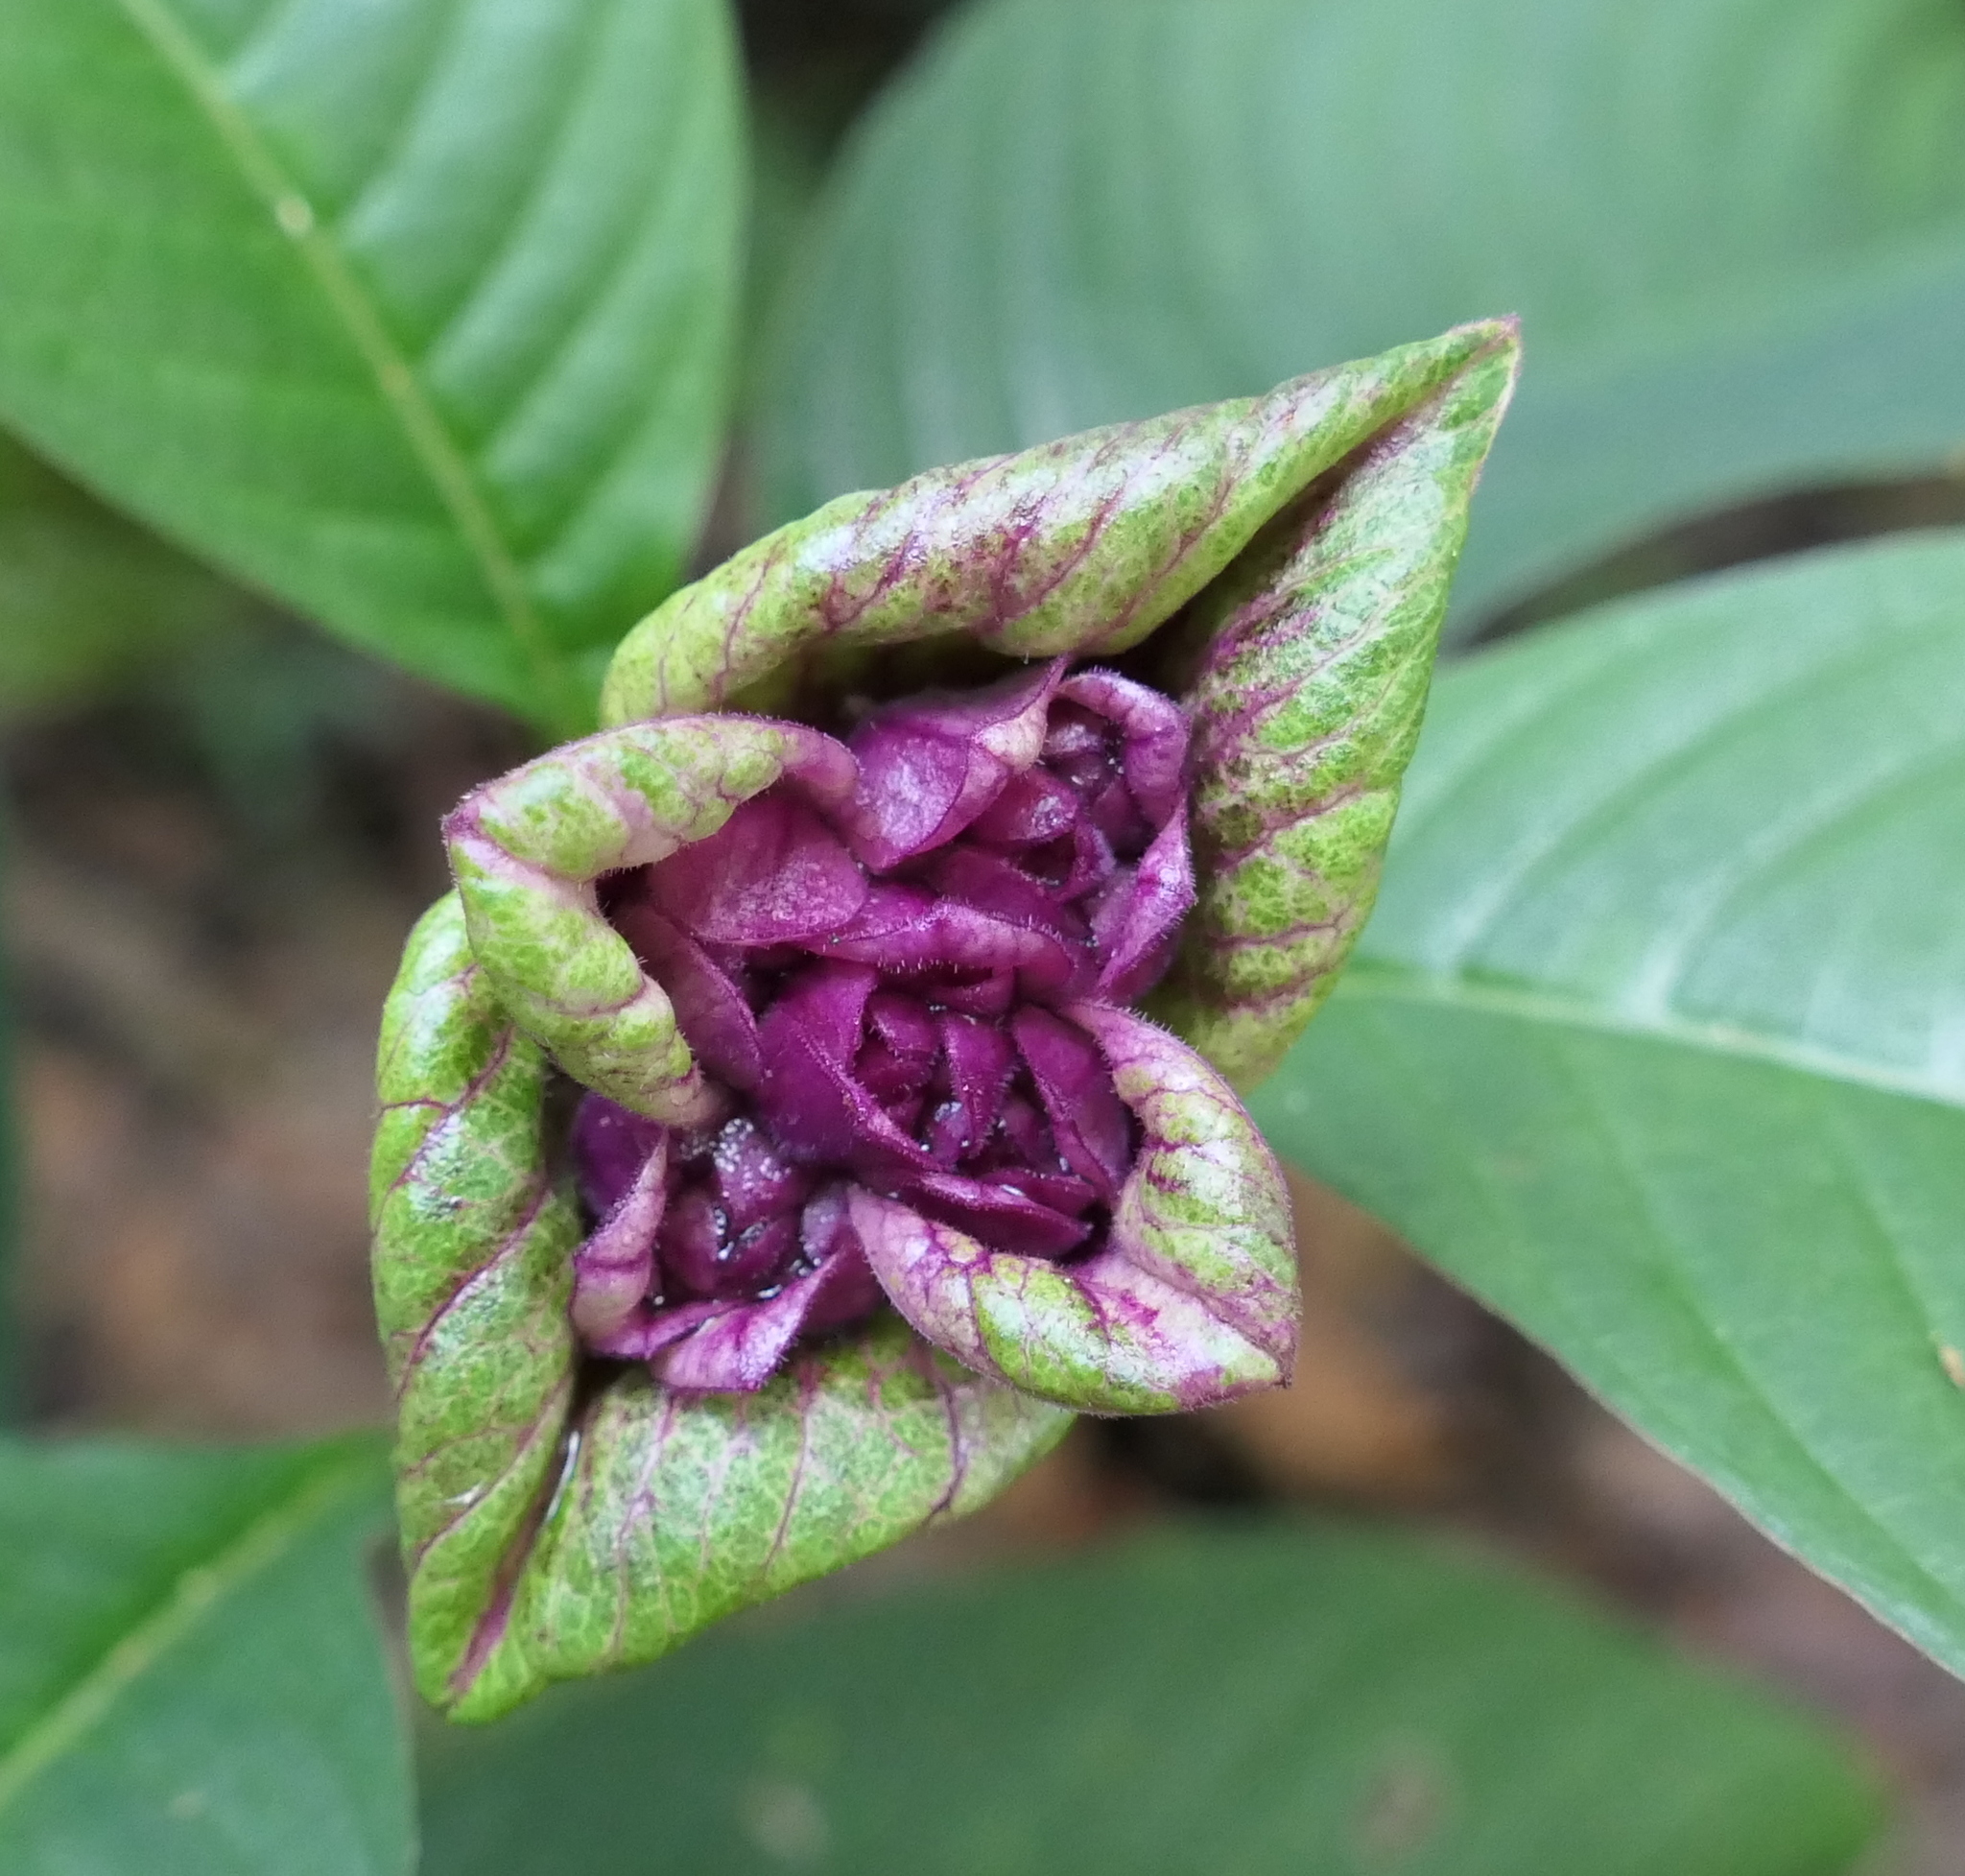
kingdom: Plantae
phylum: Tracheophyta
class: Magnoliopsida
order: Gentianales
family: Rubiaceae
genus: Palicourea
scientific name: Palicourea colorata
